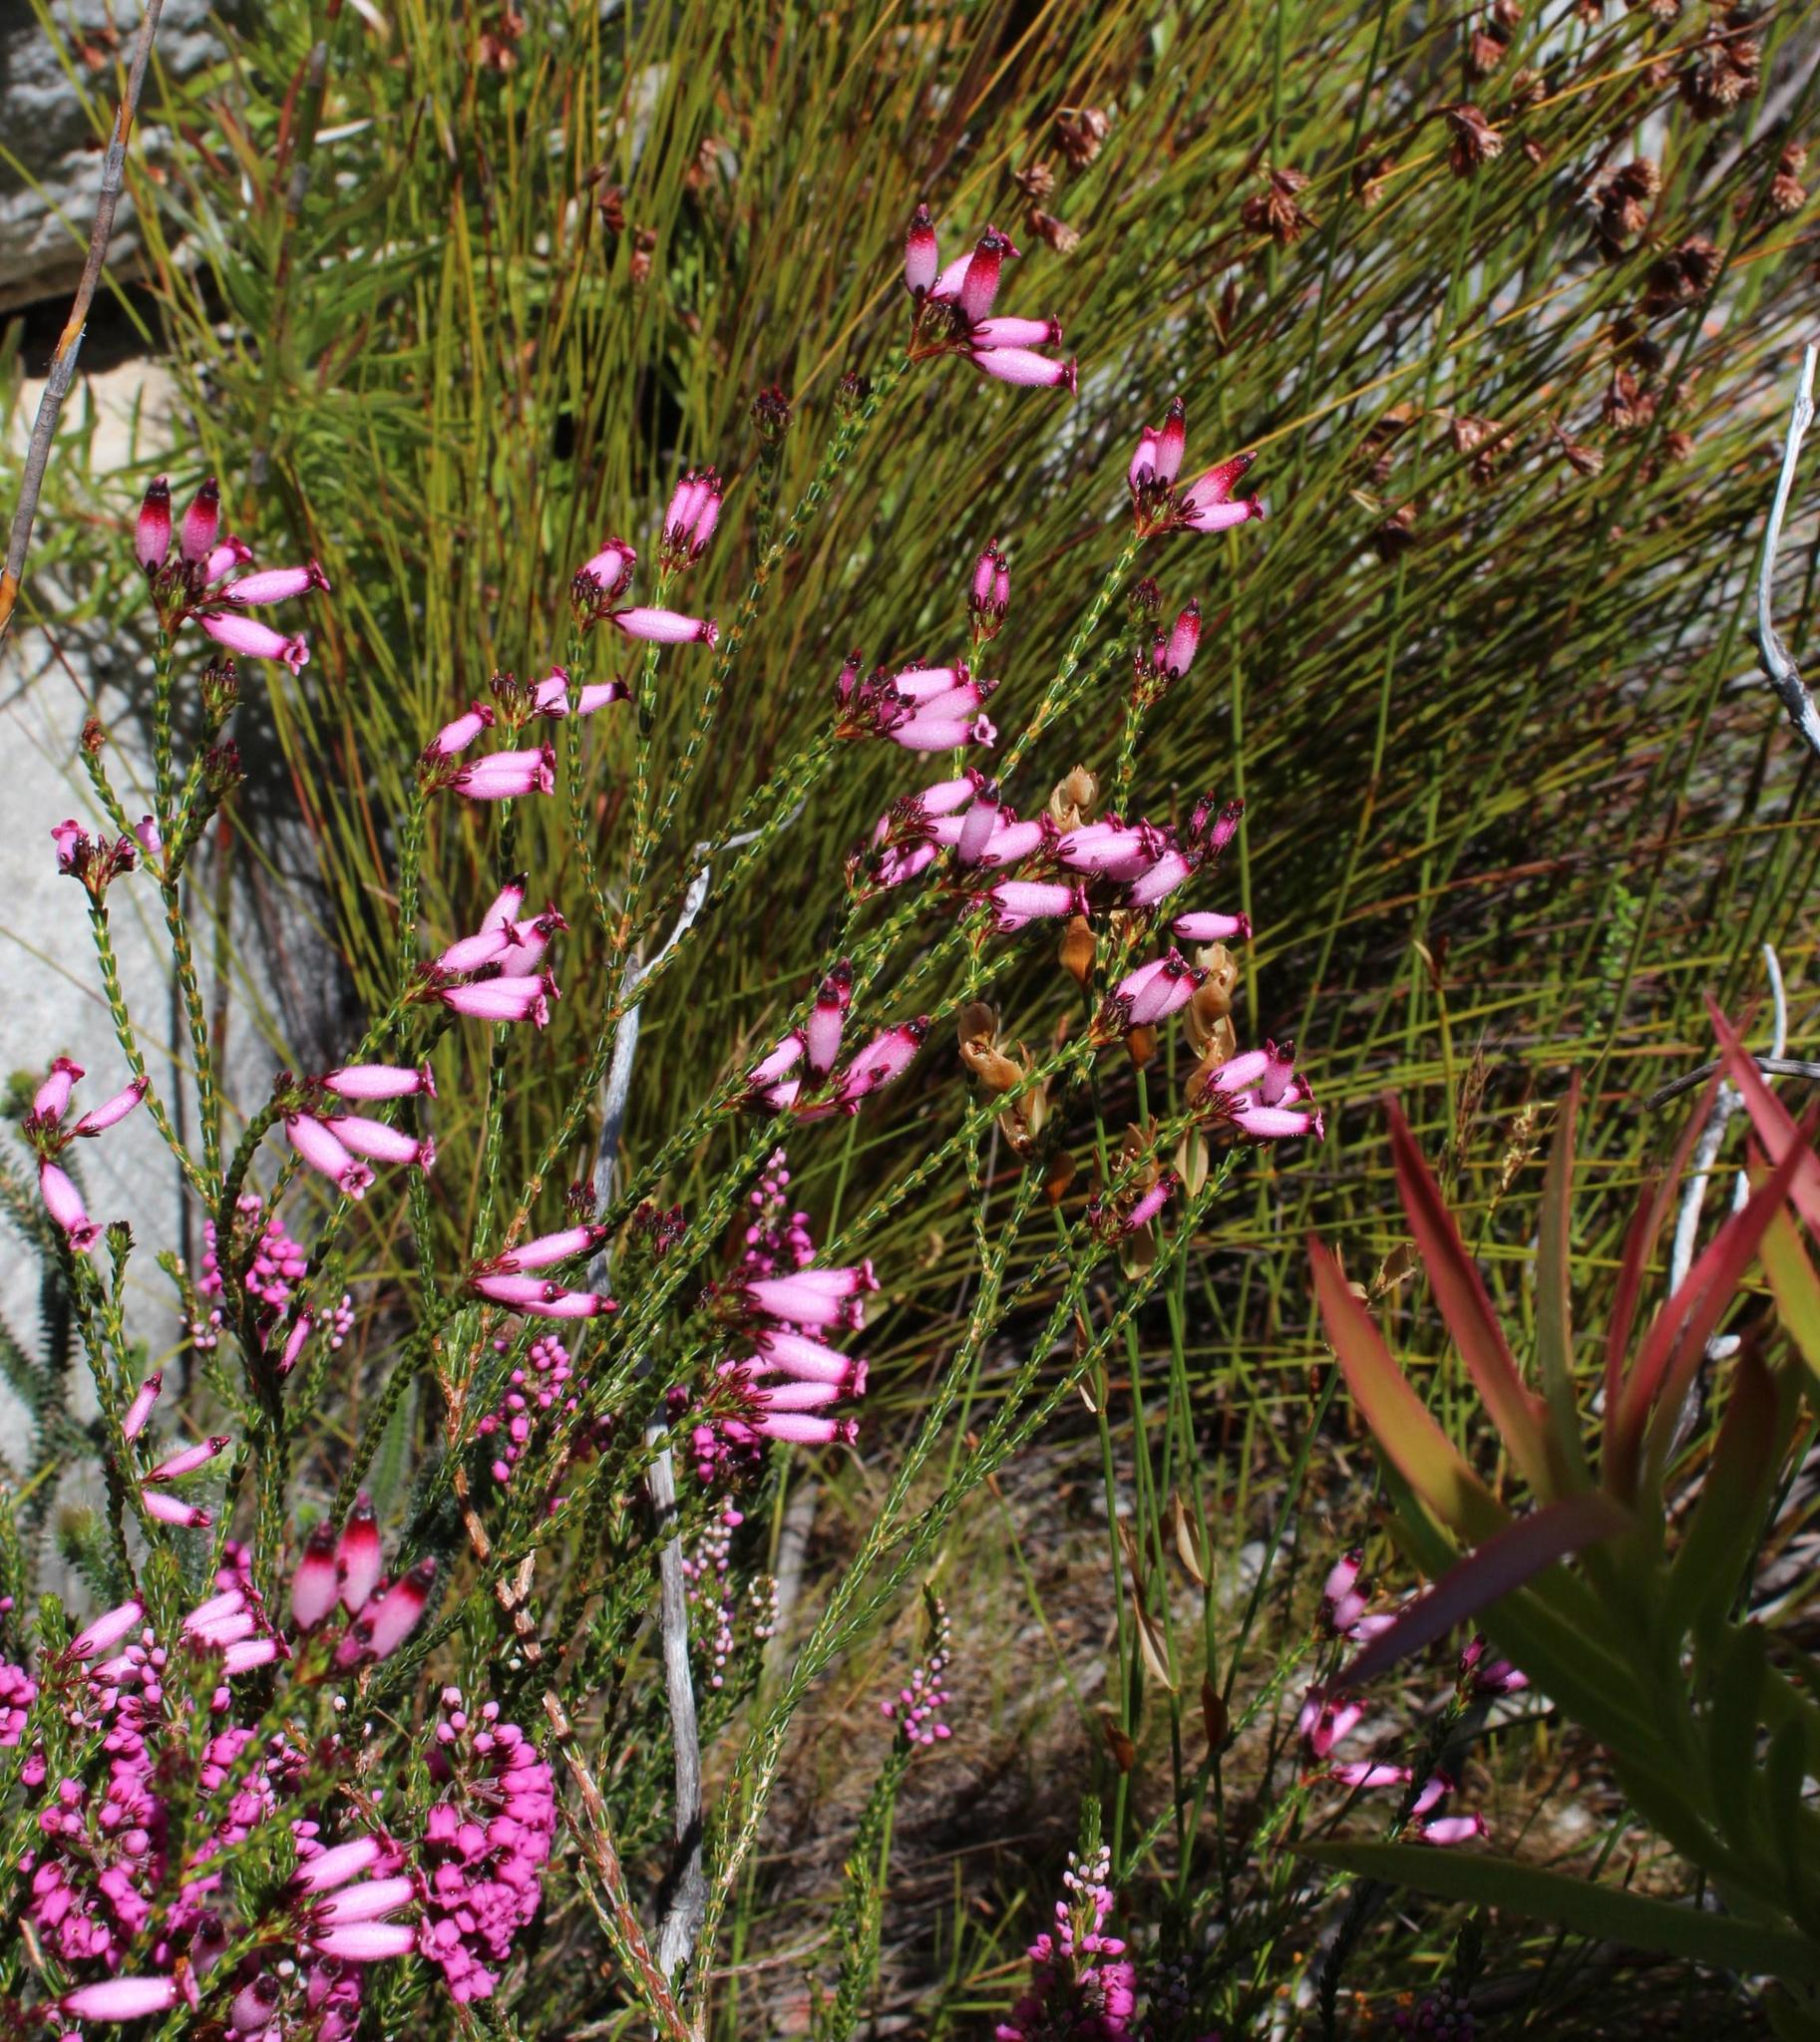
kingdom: Plantae
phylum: Tracheophyta
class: Magnoliopsida
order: Ericales
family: Ericaceae
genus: Erica
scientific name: Erica cristata
